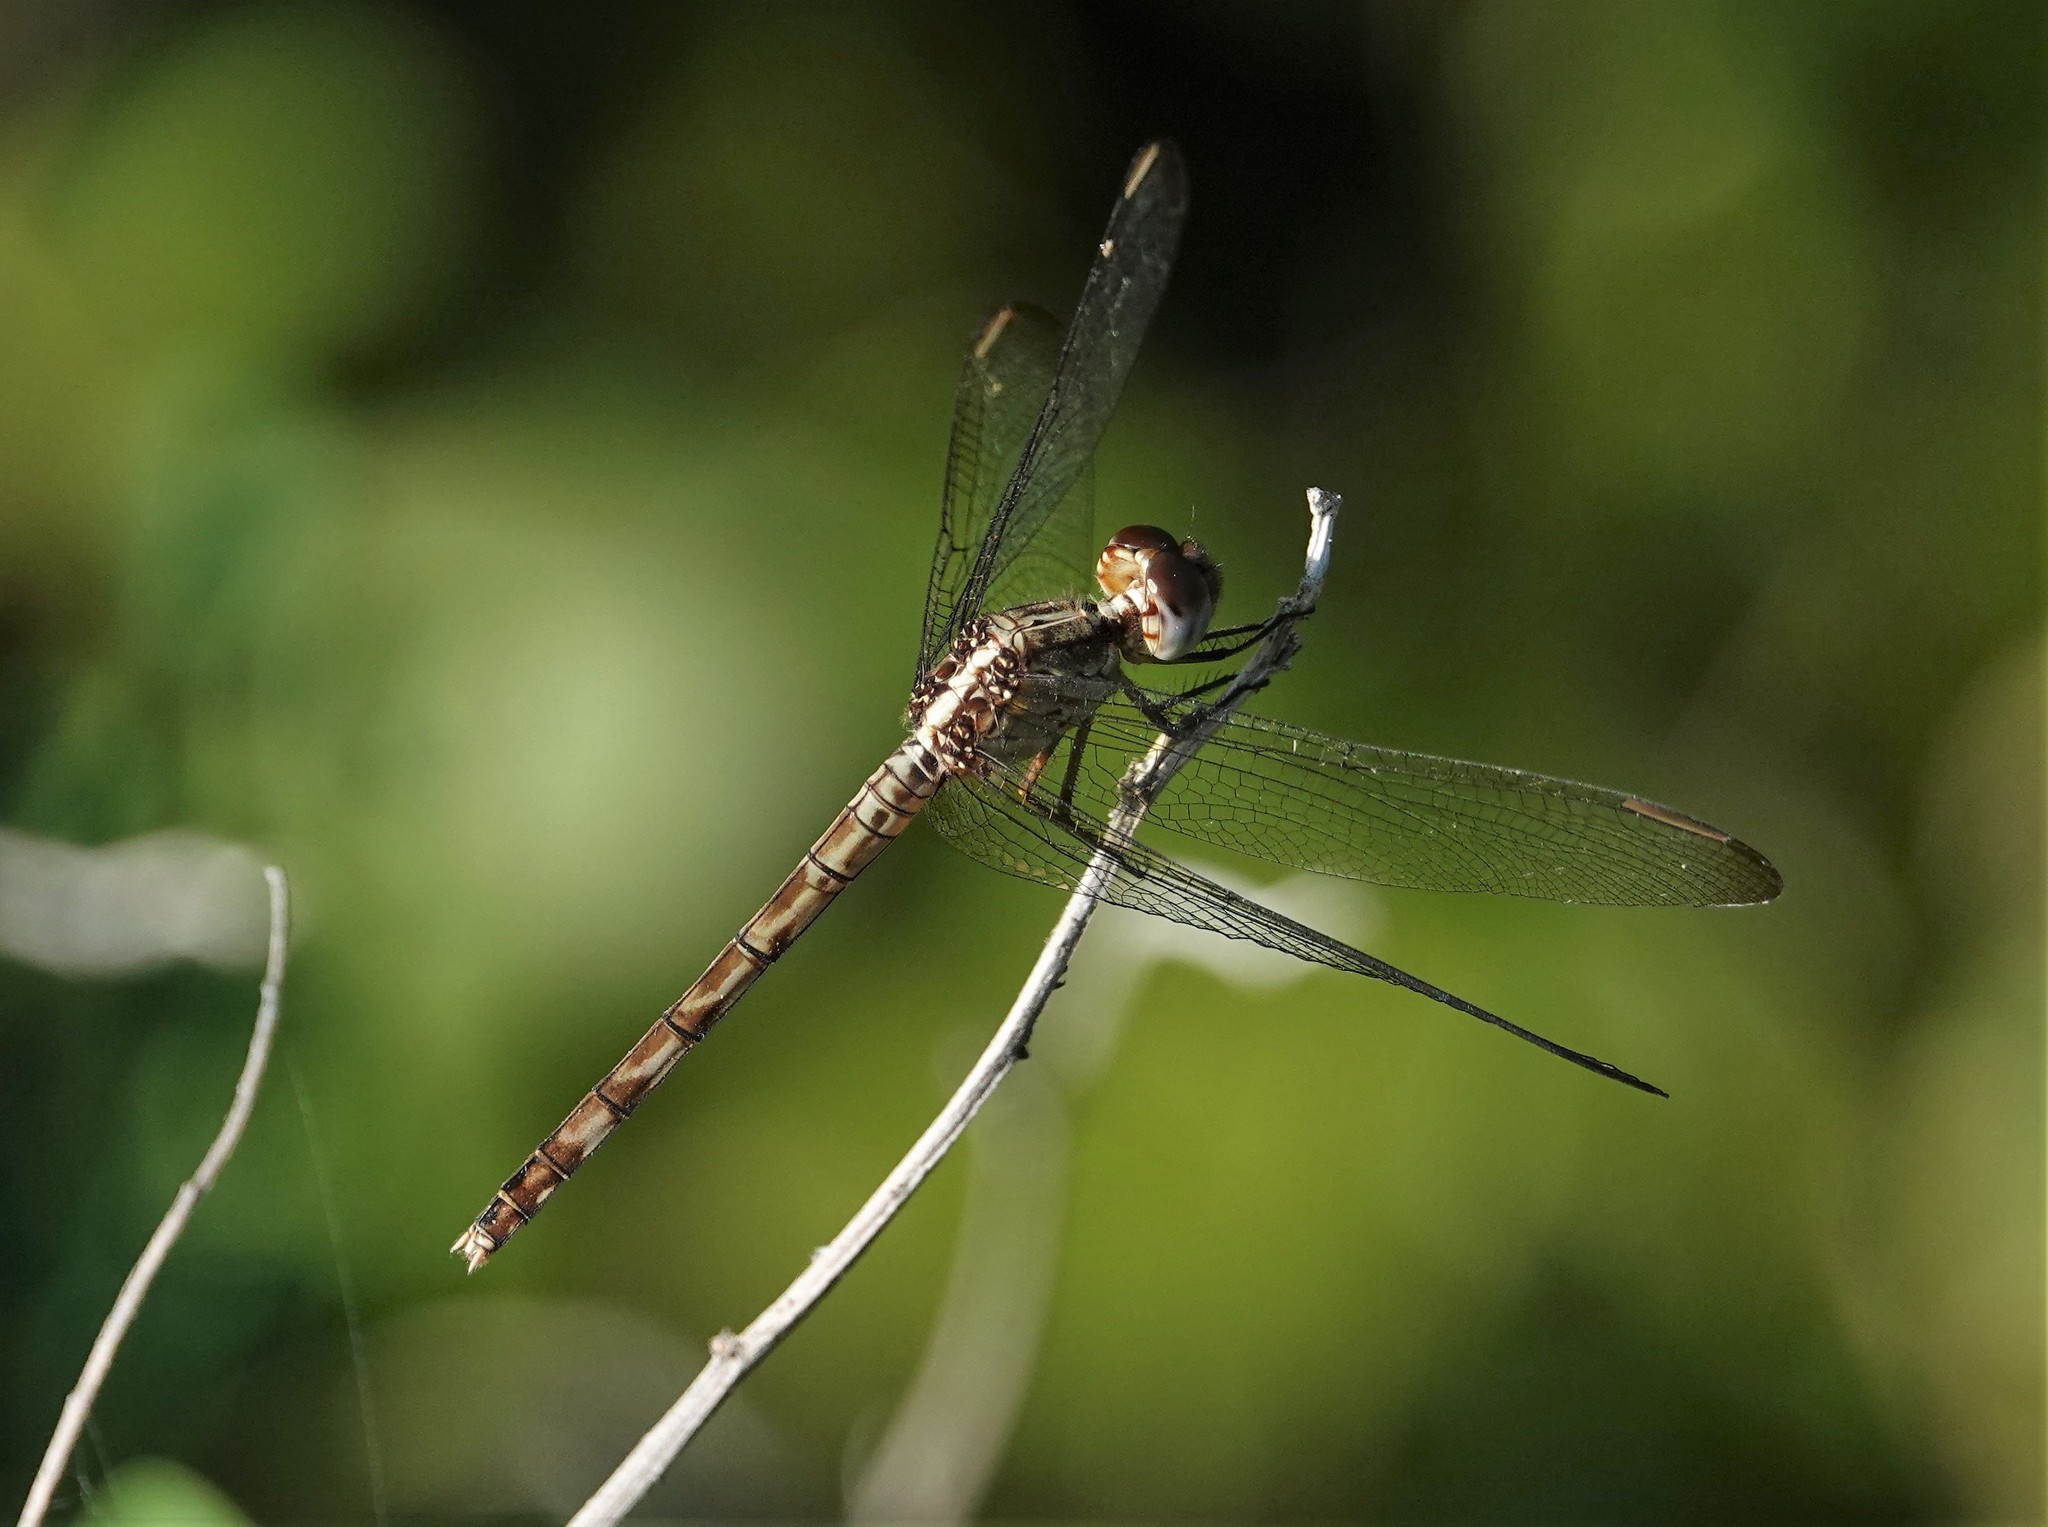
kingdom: Animalia
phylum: Arthropoda
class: Insecta
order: Odonata
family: Libellulidae
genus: Erythrodiplax
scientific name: Erythrodiplax umbrata
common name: Band-winged dragonlet
